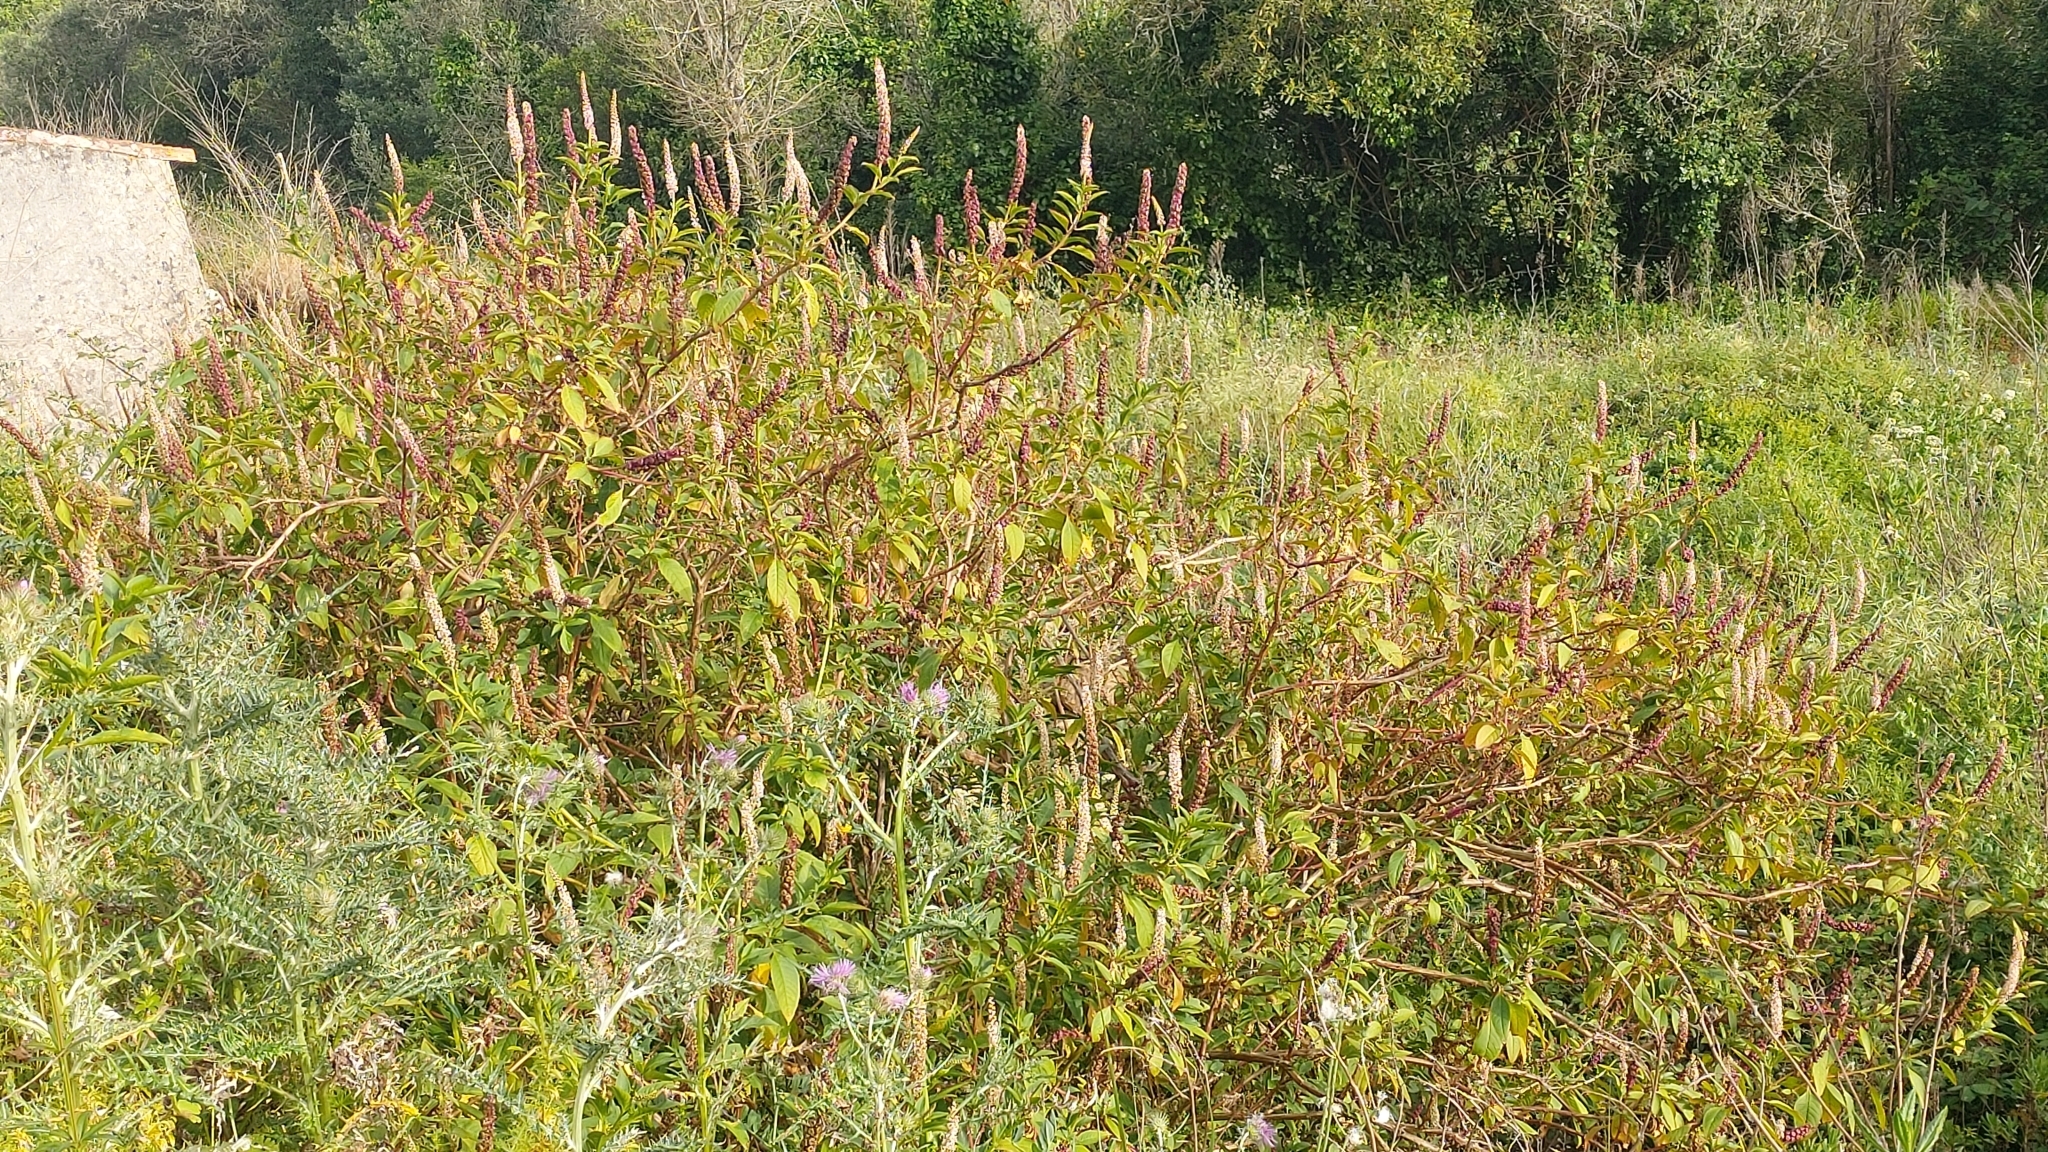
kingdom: Plantae
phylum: Tracheophyta
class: Magnoliopsida
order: Caryophyllales
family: Phytolaccaceae
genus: Phytolacca
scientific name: Phytolacca heterotepala
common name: Mexican pokeweed
